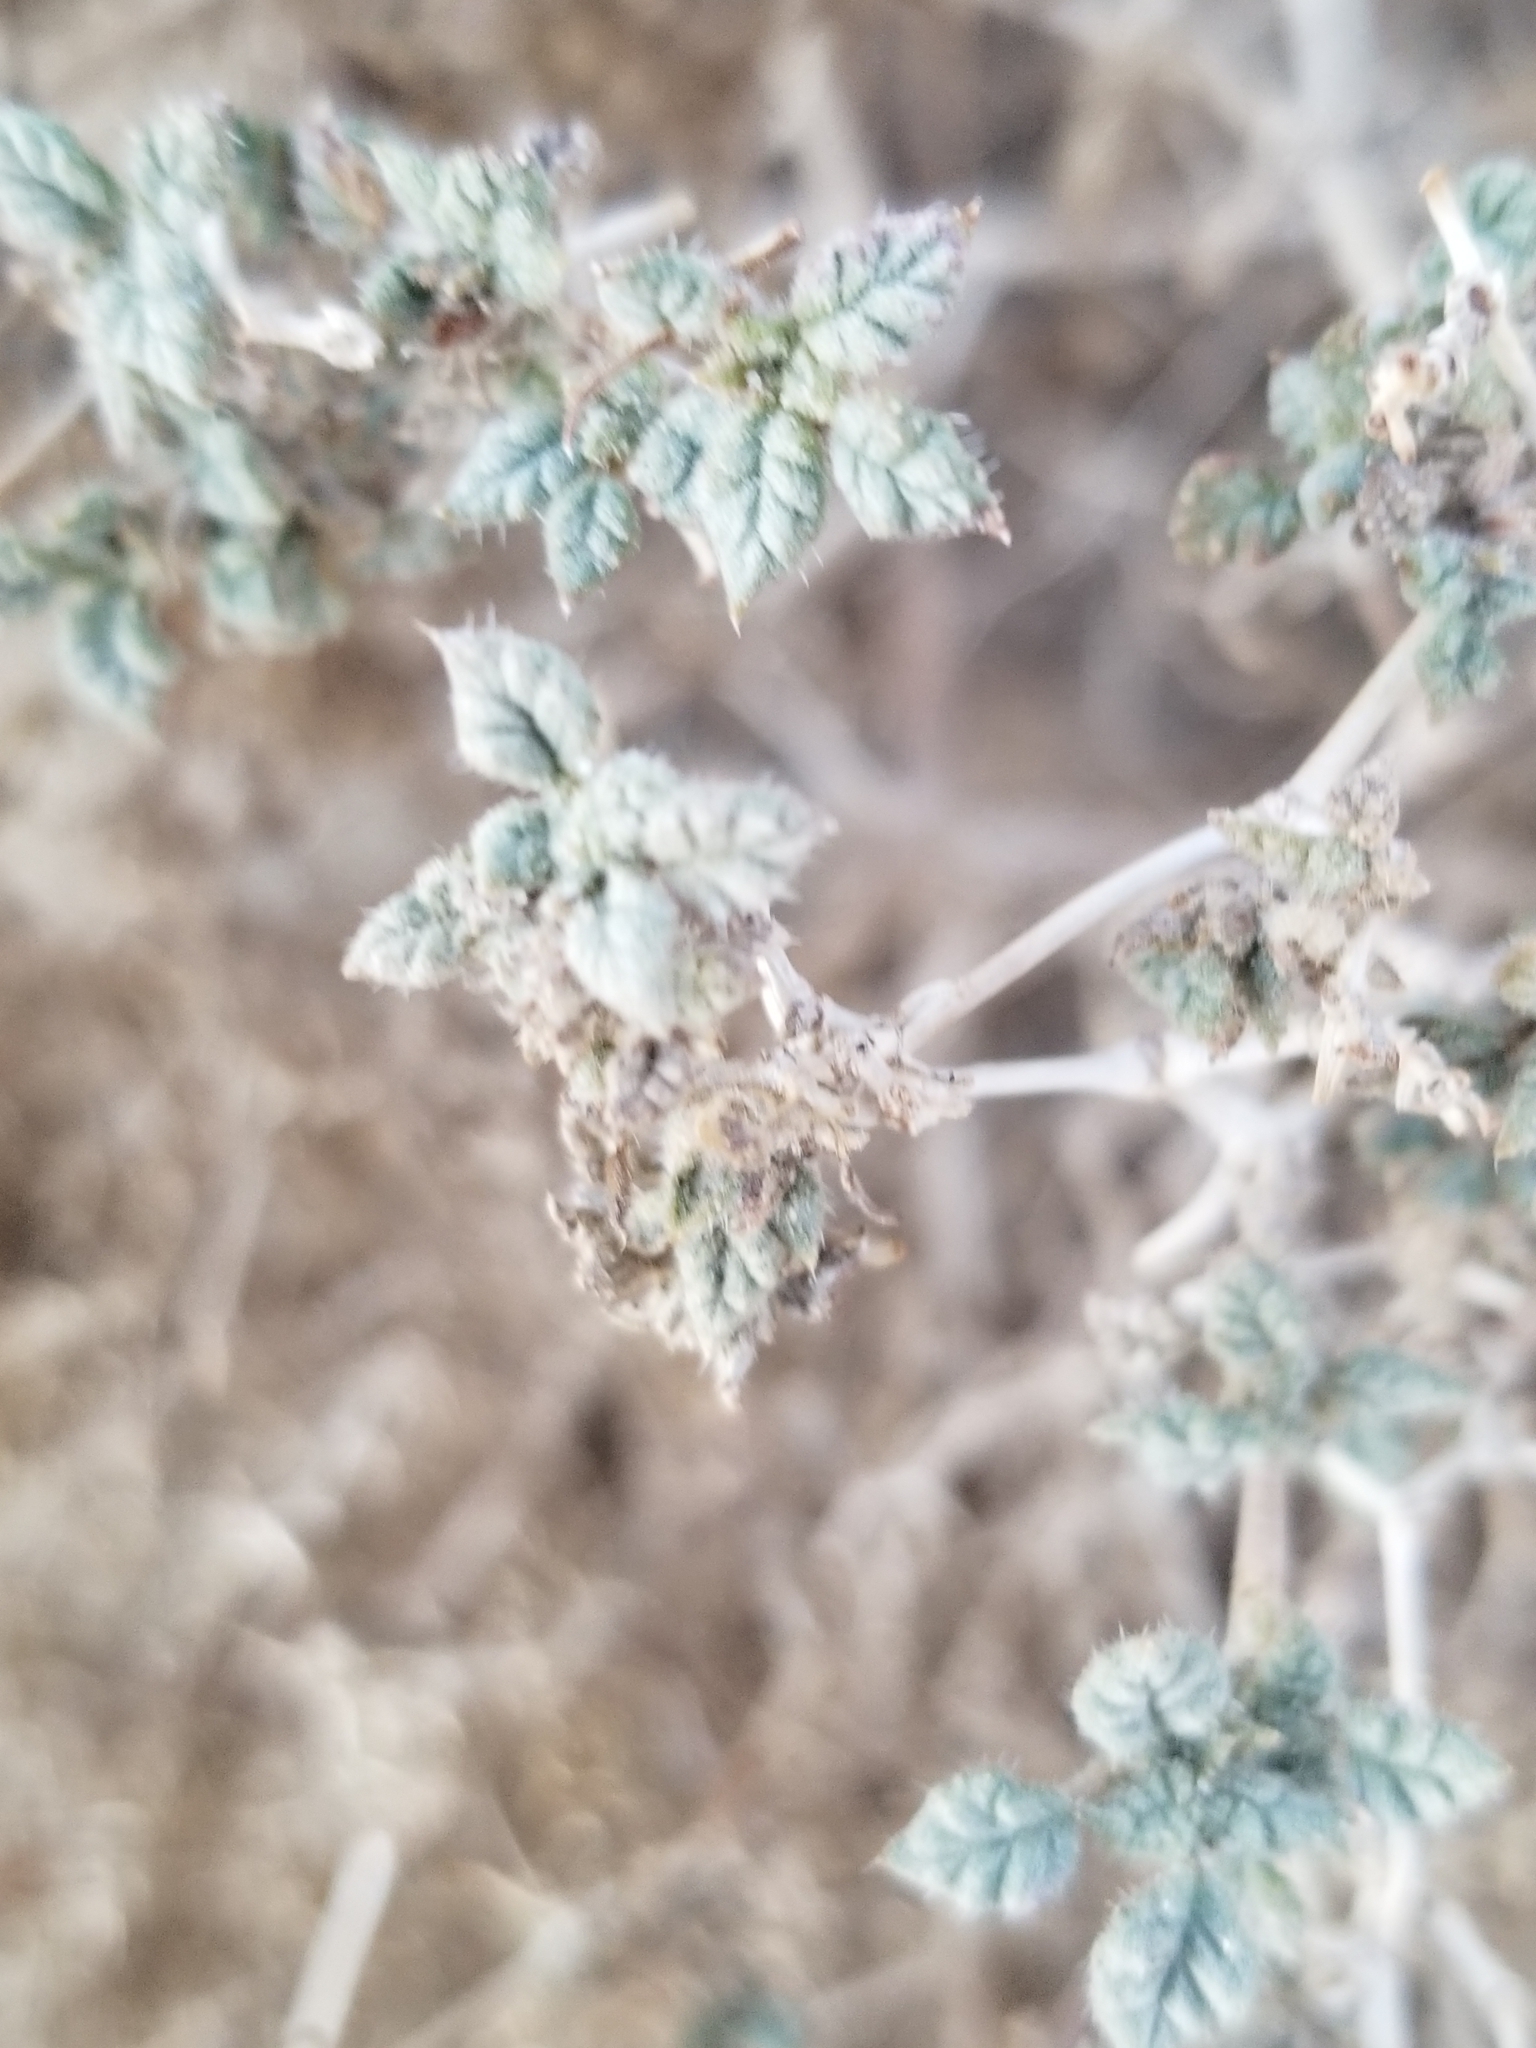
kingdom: Plantae
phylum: Tracheophyta
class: Magnoliopsida
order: Boraginales
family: Ehretiaceae
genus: Tiquilia
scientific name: Tiquilia palmeri
